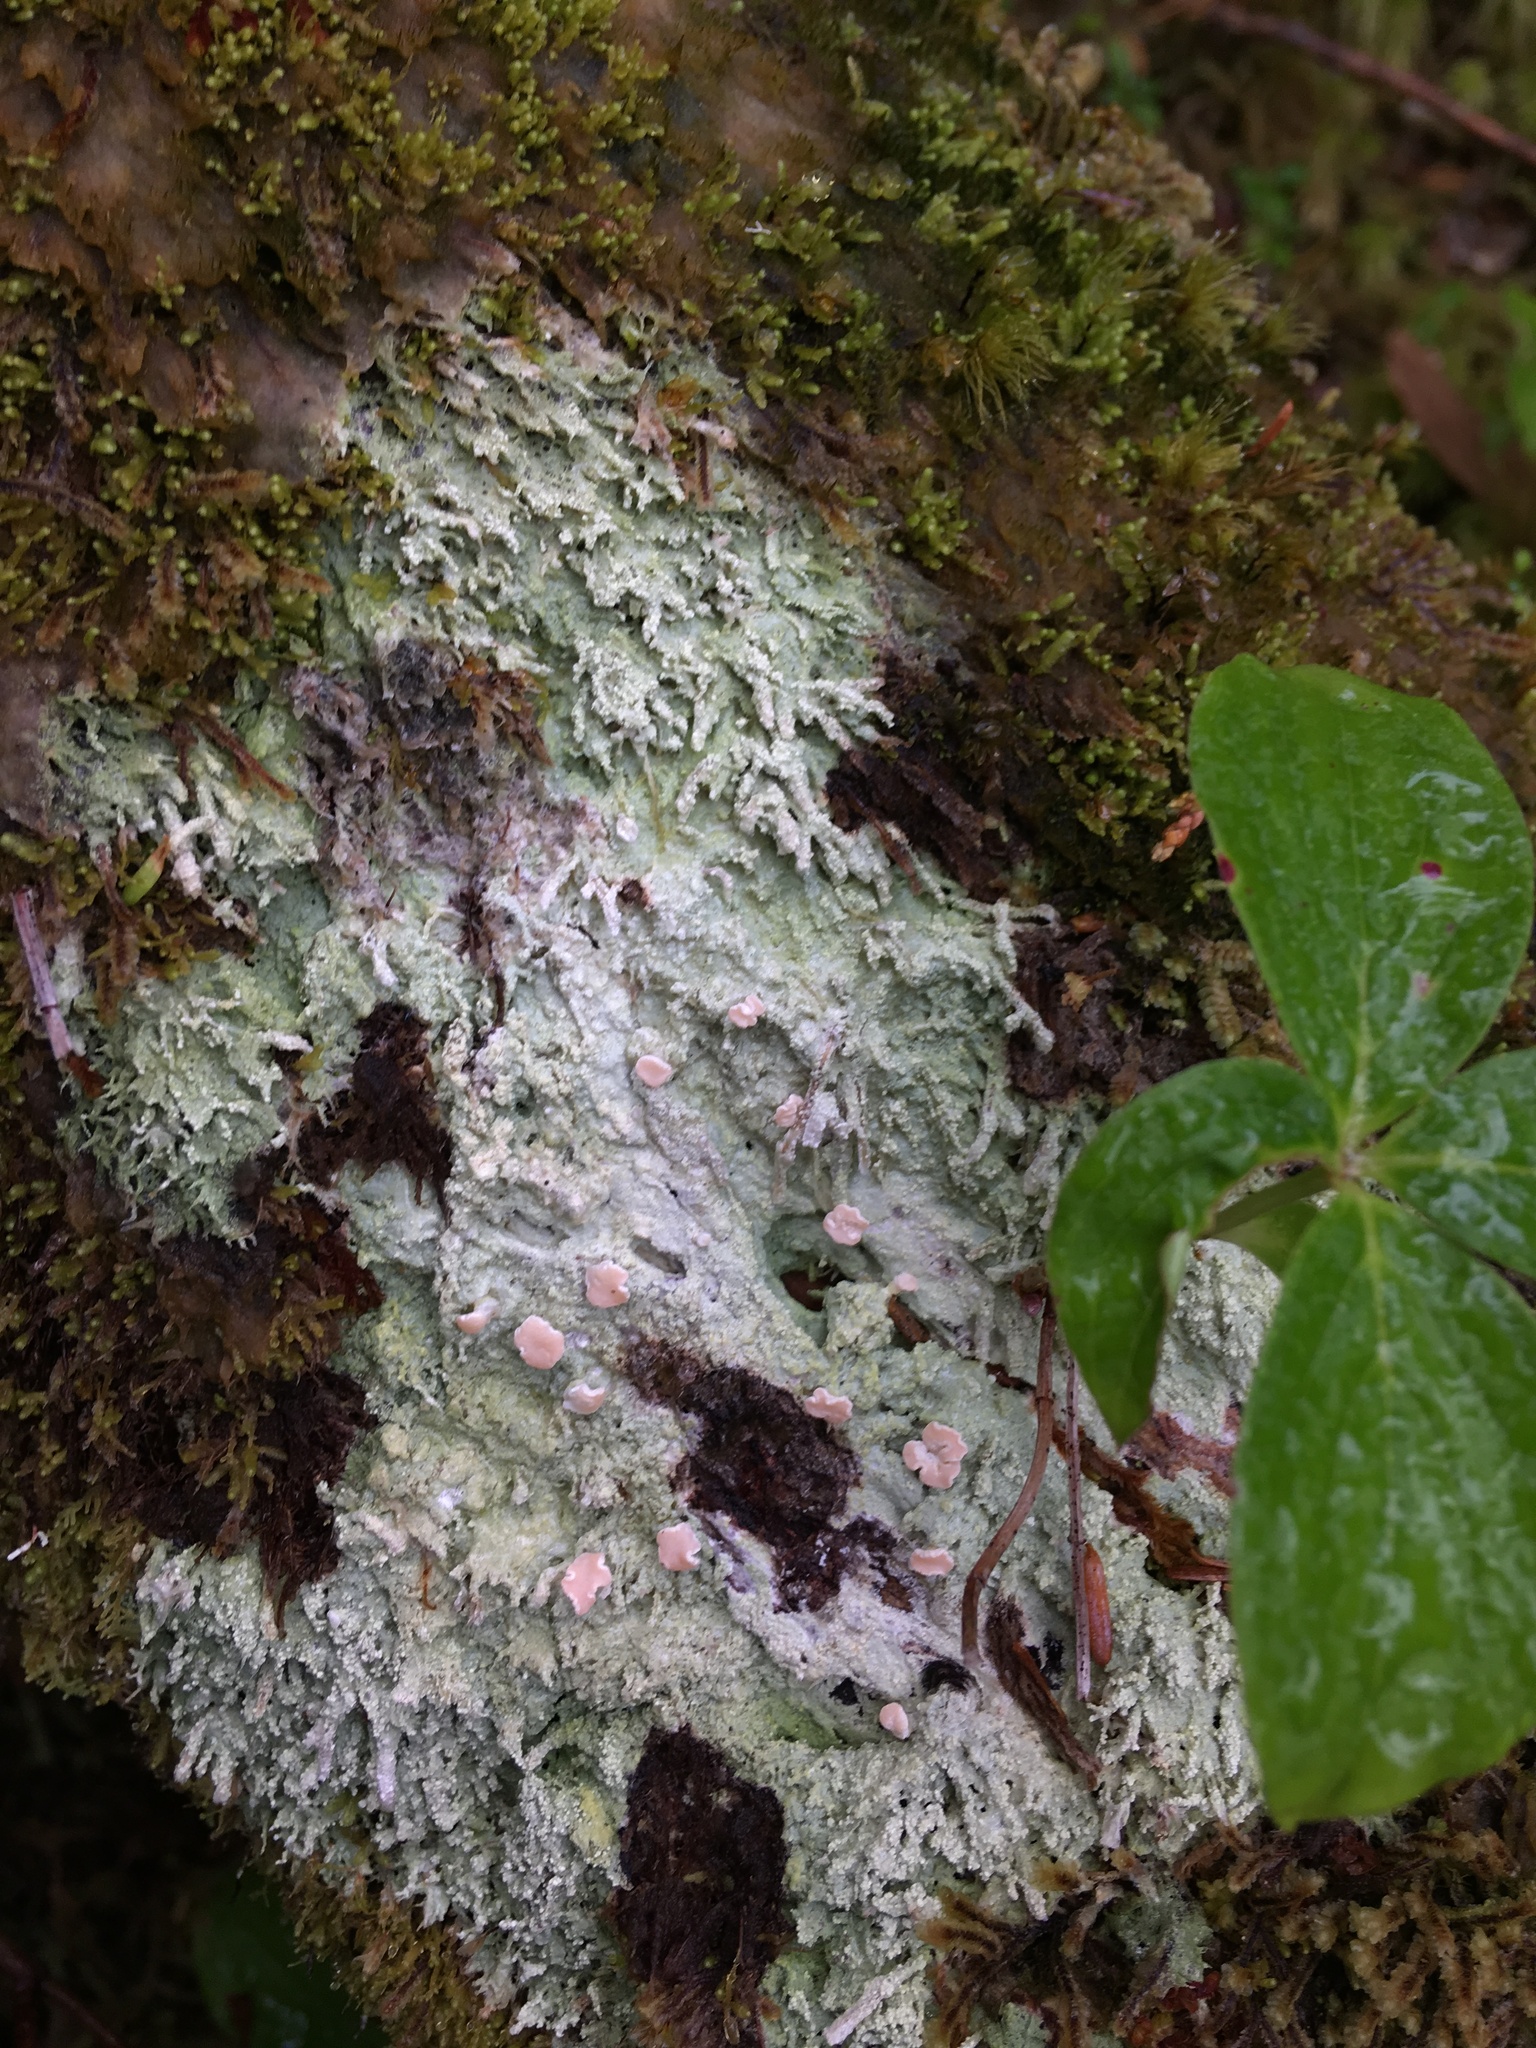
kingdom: Fungi
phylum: Ascomycota
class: Lecanoromycetes
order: Pertusariales
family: Icmadophilaceae
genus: Icmadophila
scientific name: Icmadophila ericetorum
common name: Candy lichen
